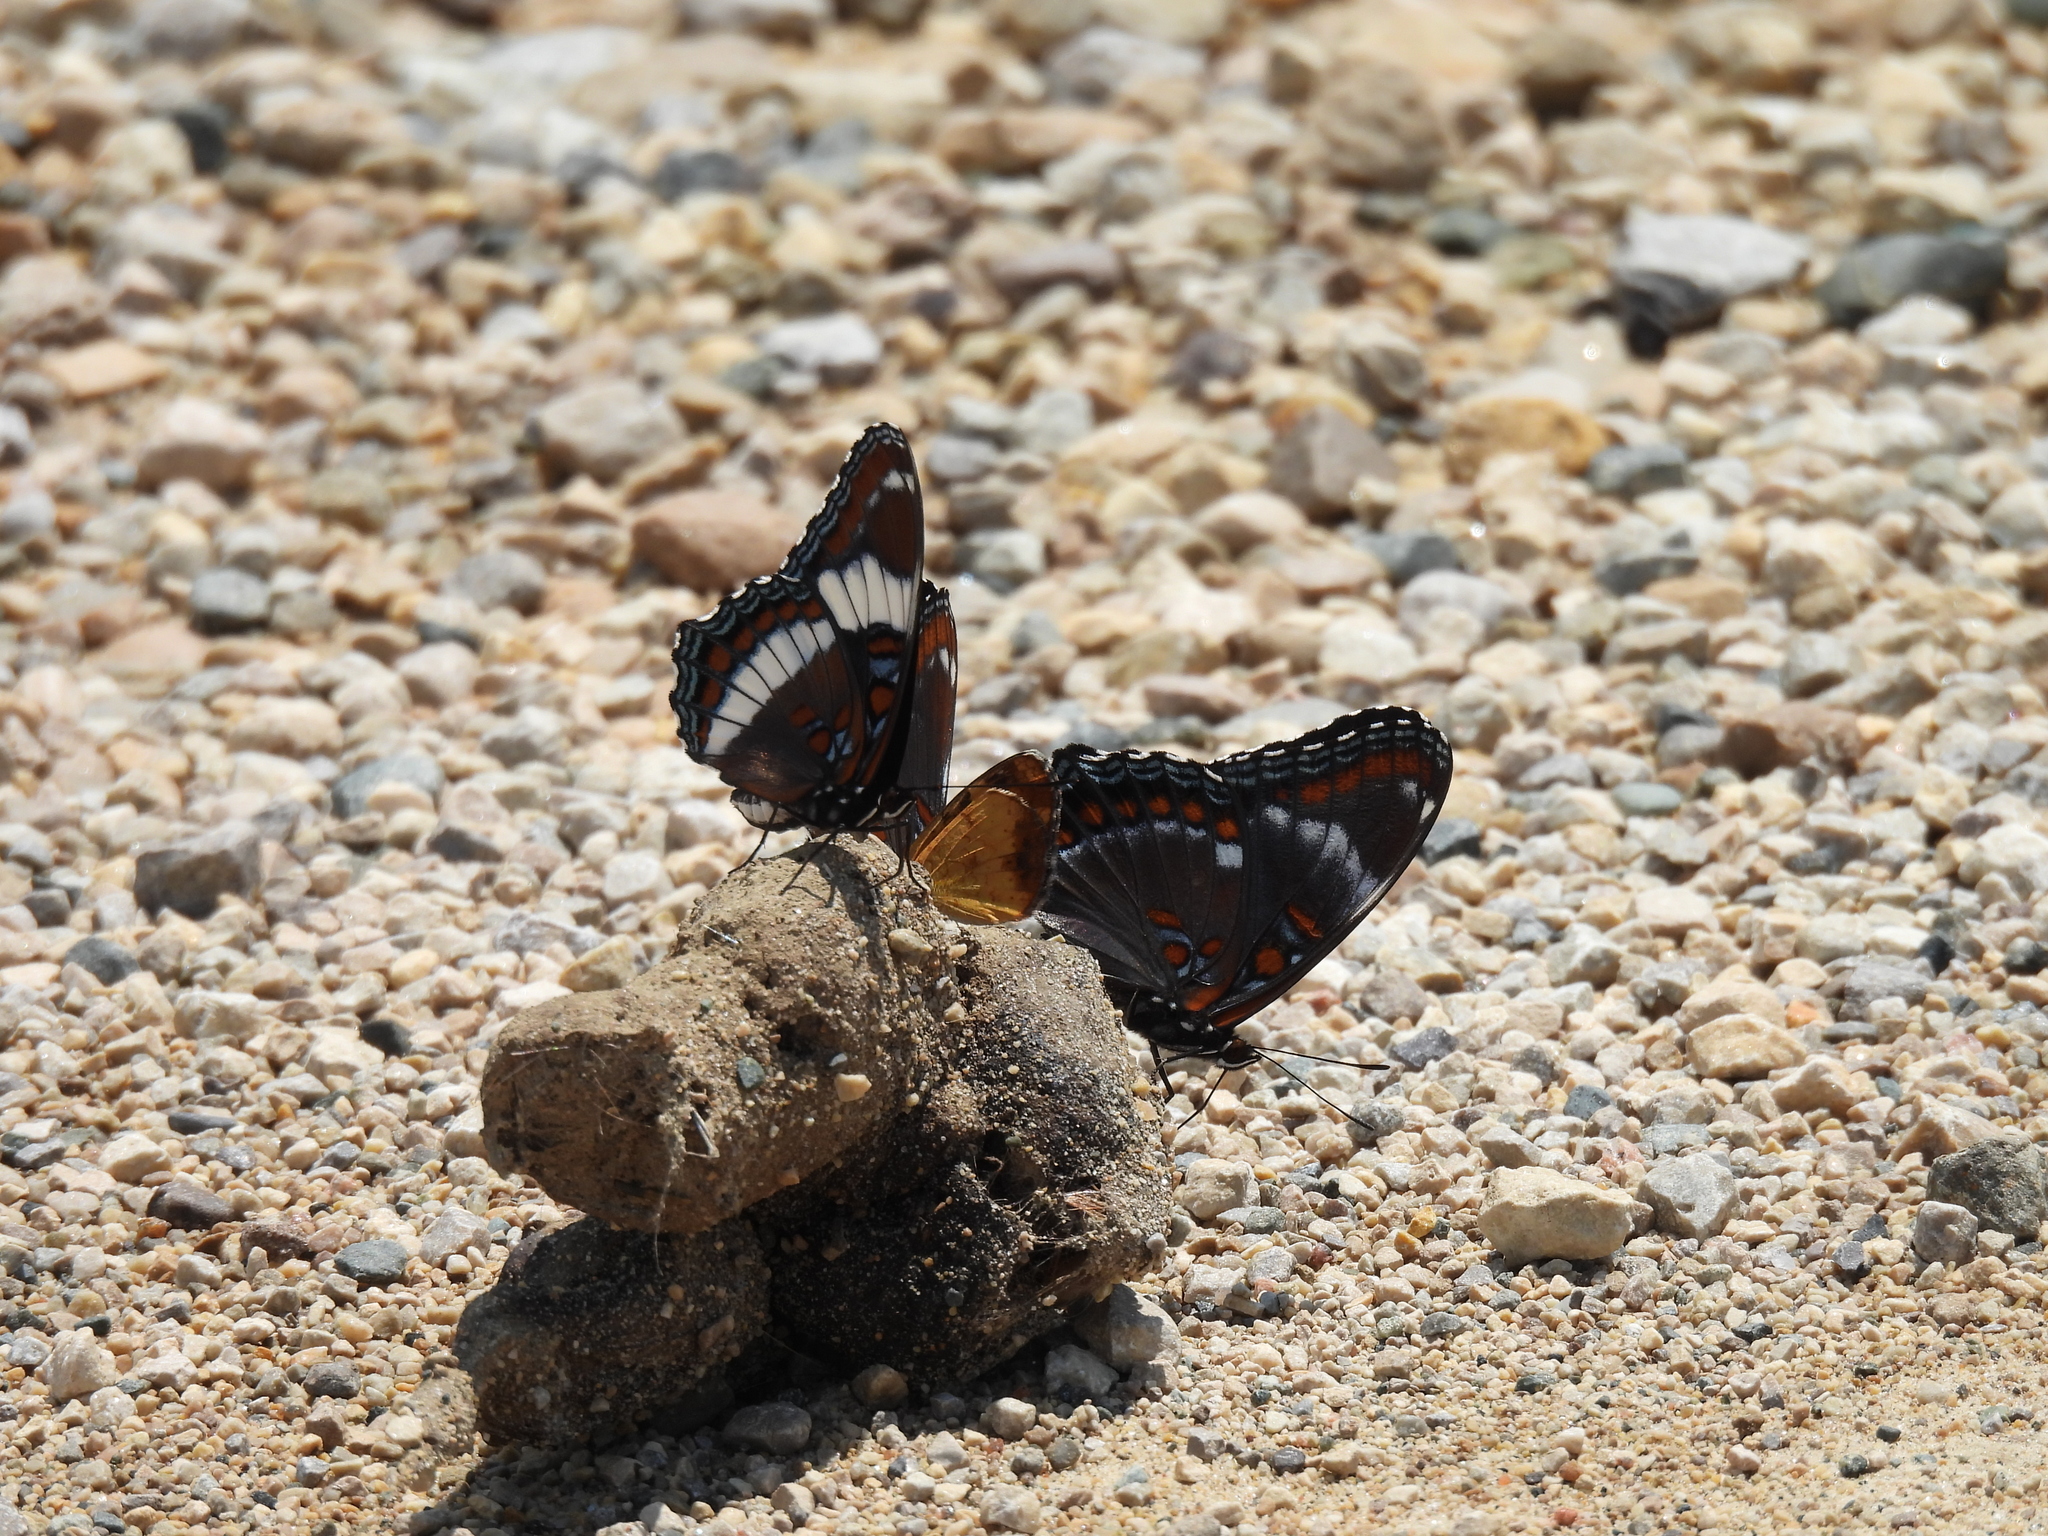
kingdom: Animalia
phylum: Arthropoda
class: Insecta
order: Lepidoptera
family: Nymphalidae
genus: Limenitis
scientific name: Limenitis arthemis
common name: Red-spotted admiral
